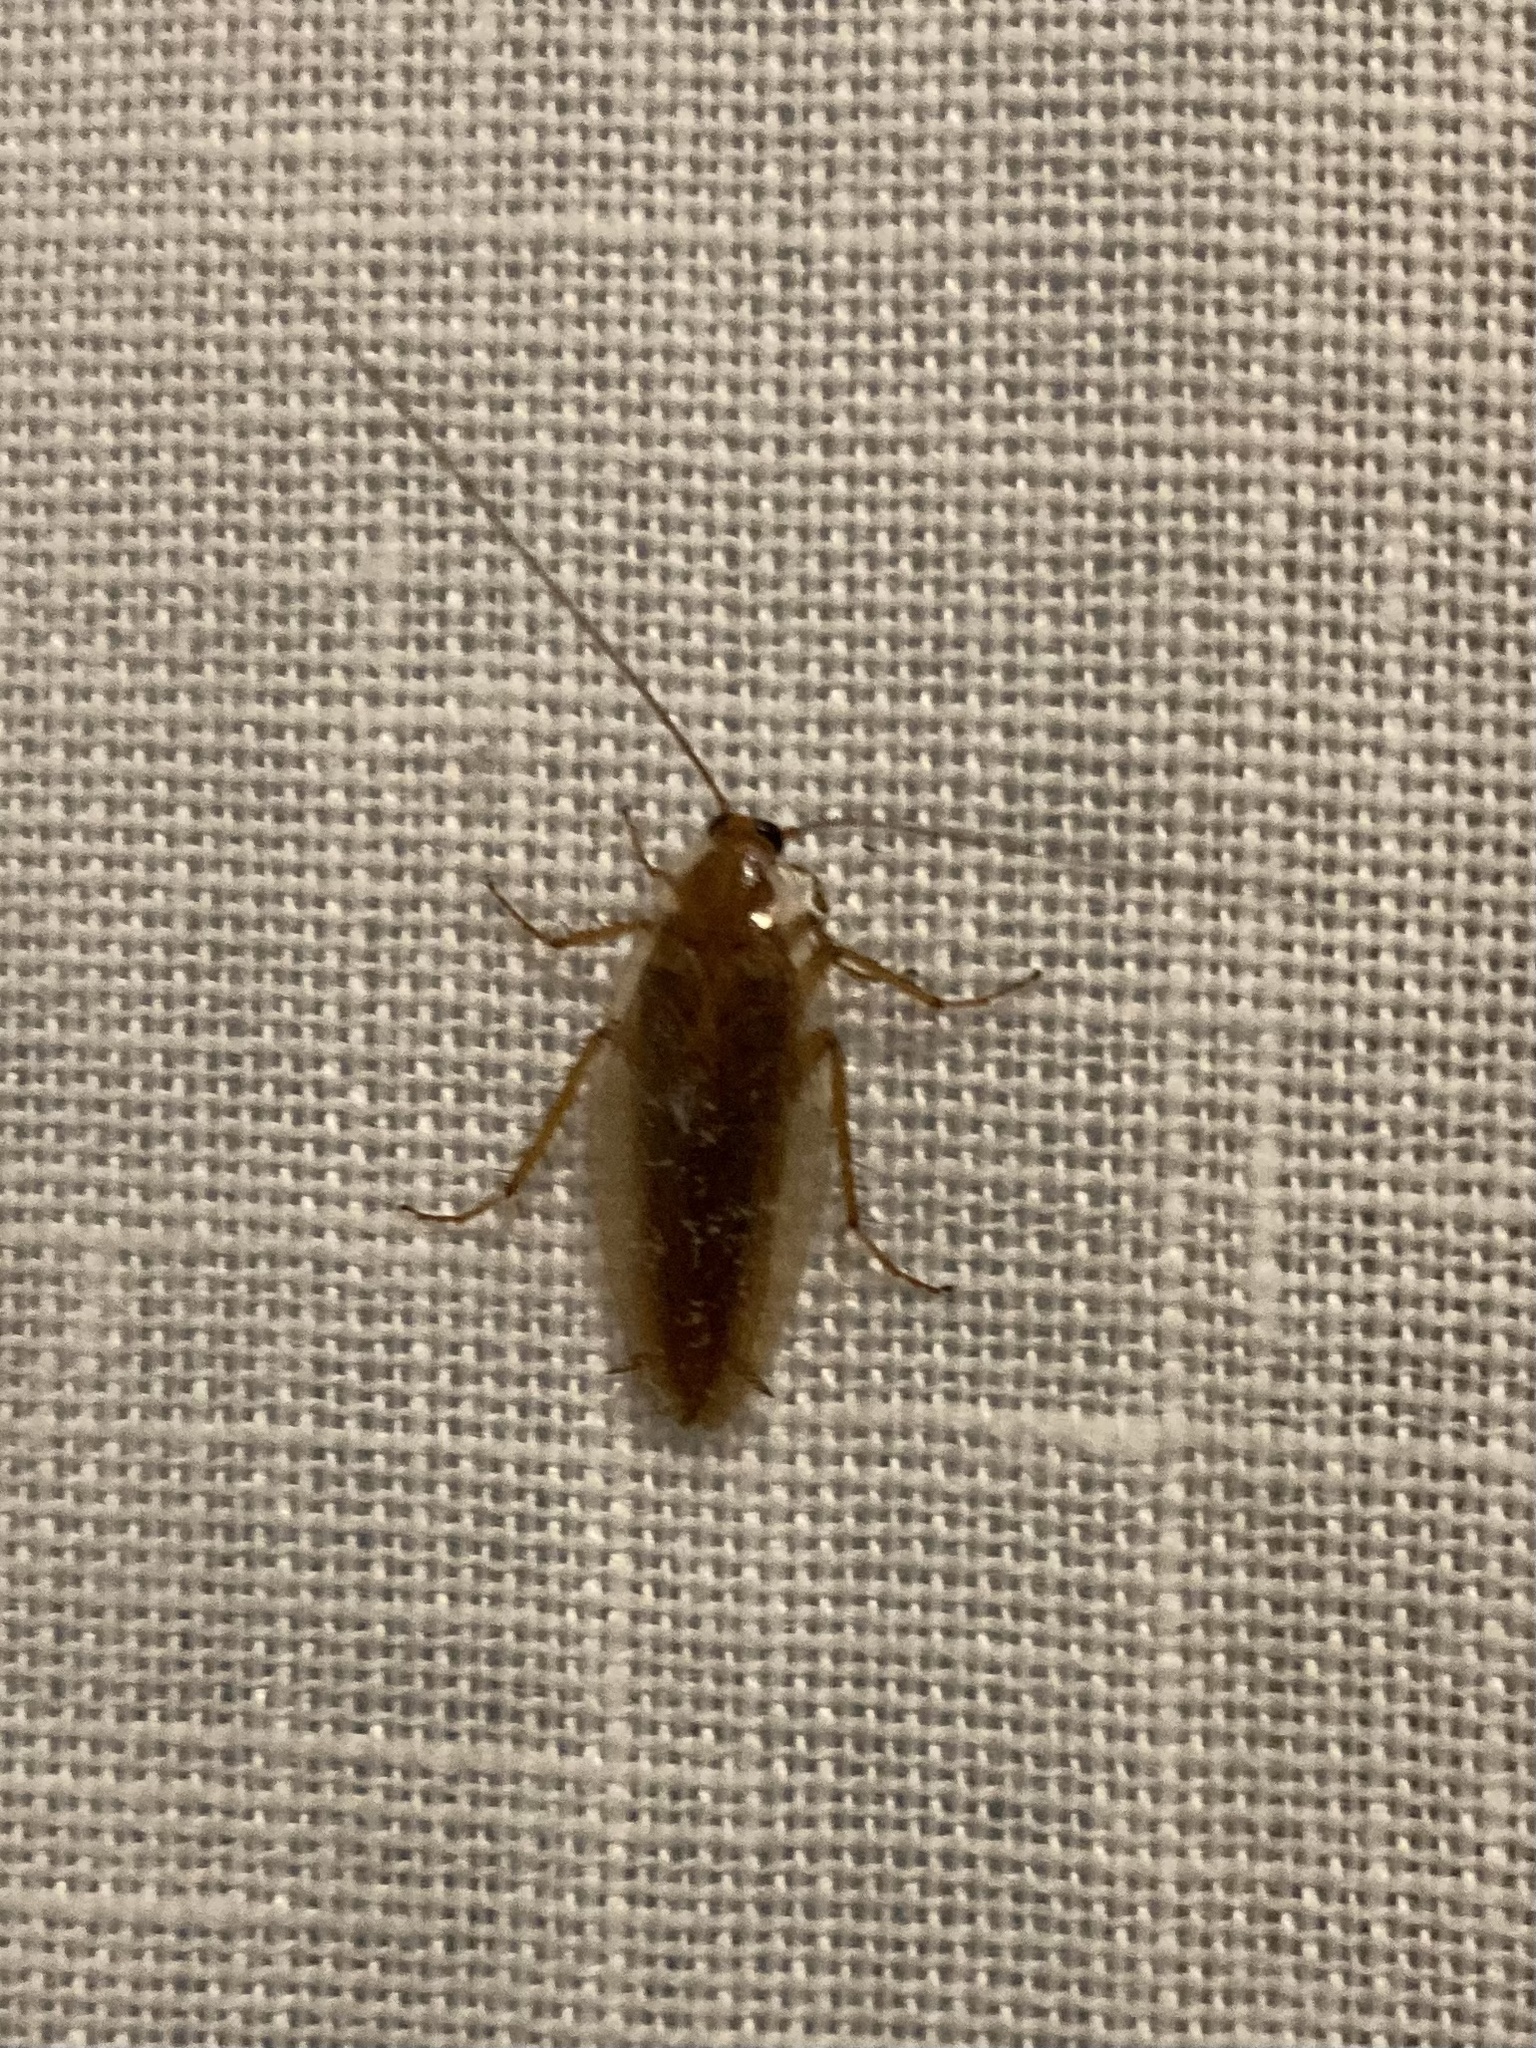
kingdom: Animalia
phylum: Arthropoda
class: Insecta
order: Blattodea
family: Ectobiidae
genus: Ectobius
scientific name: Ectobius vittiventris
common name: Garden cockroach
